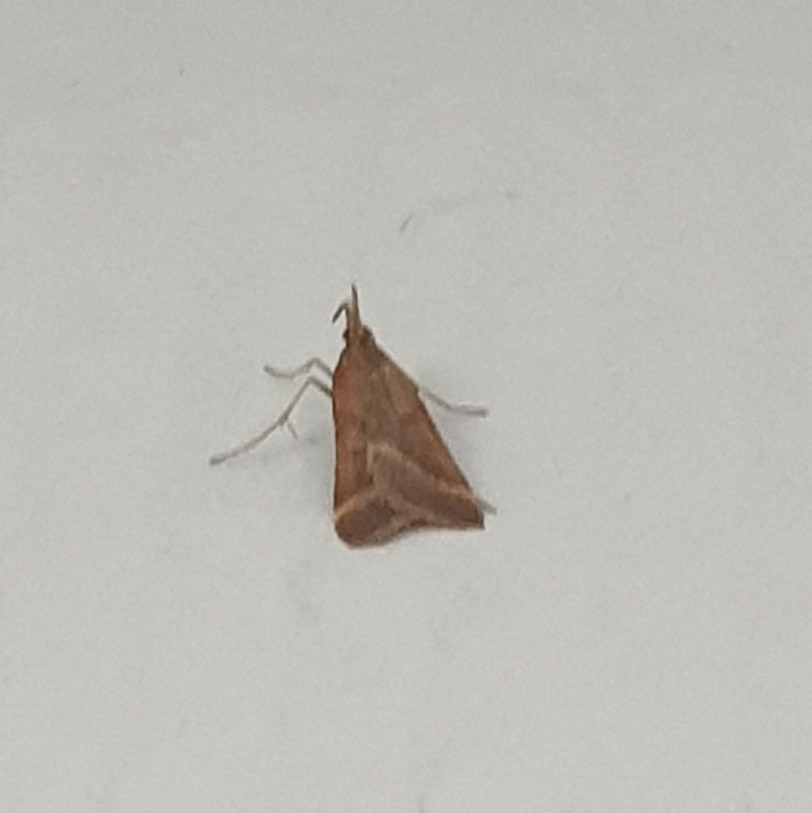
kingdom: Animalia
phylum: Arthropoda
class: Insecta
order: Lepidoptera
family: Pyralidae
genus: Synaphe
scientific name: Synaphe punctalis
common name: Long-legged tabby
